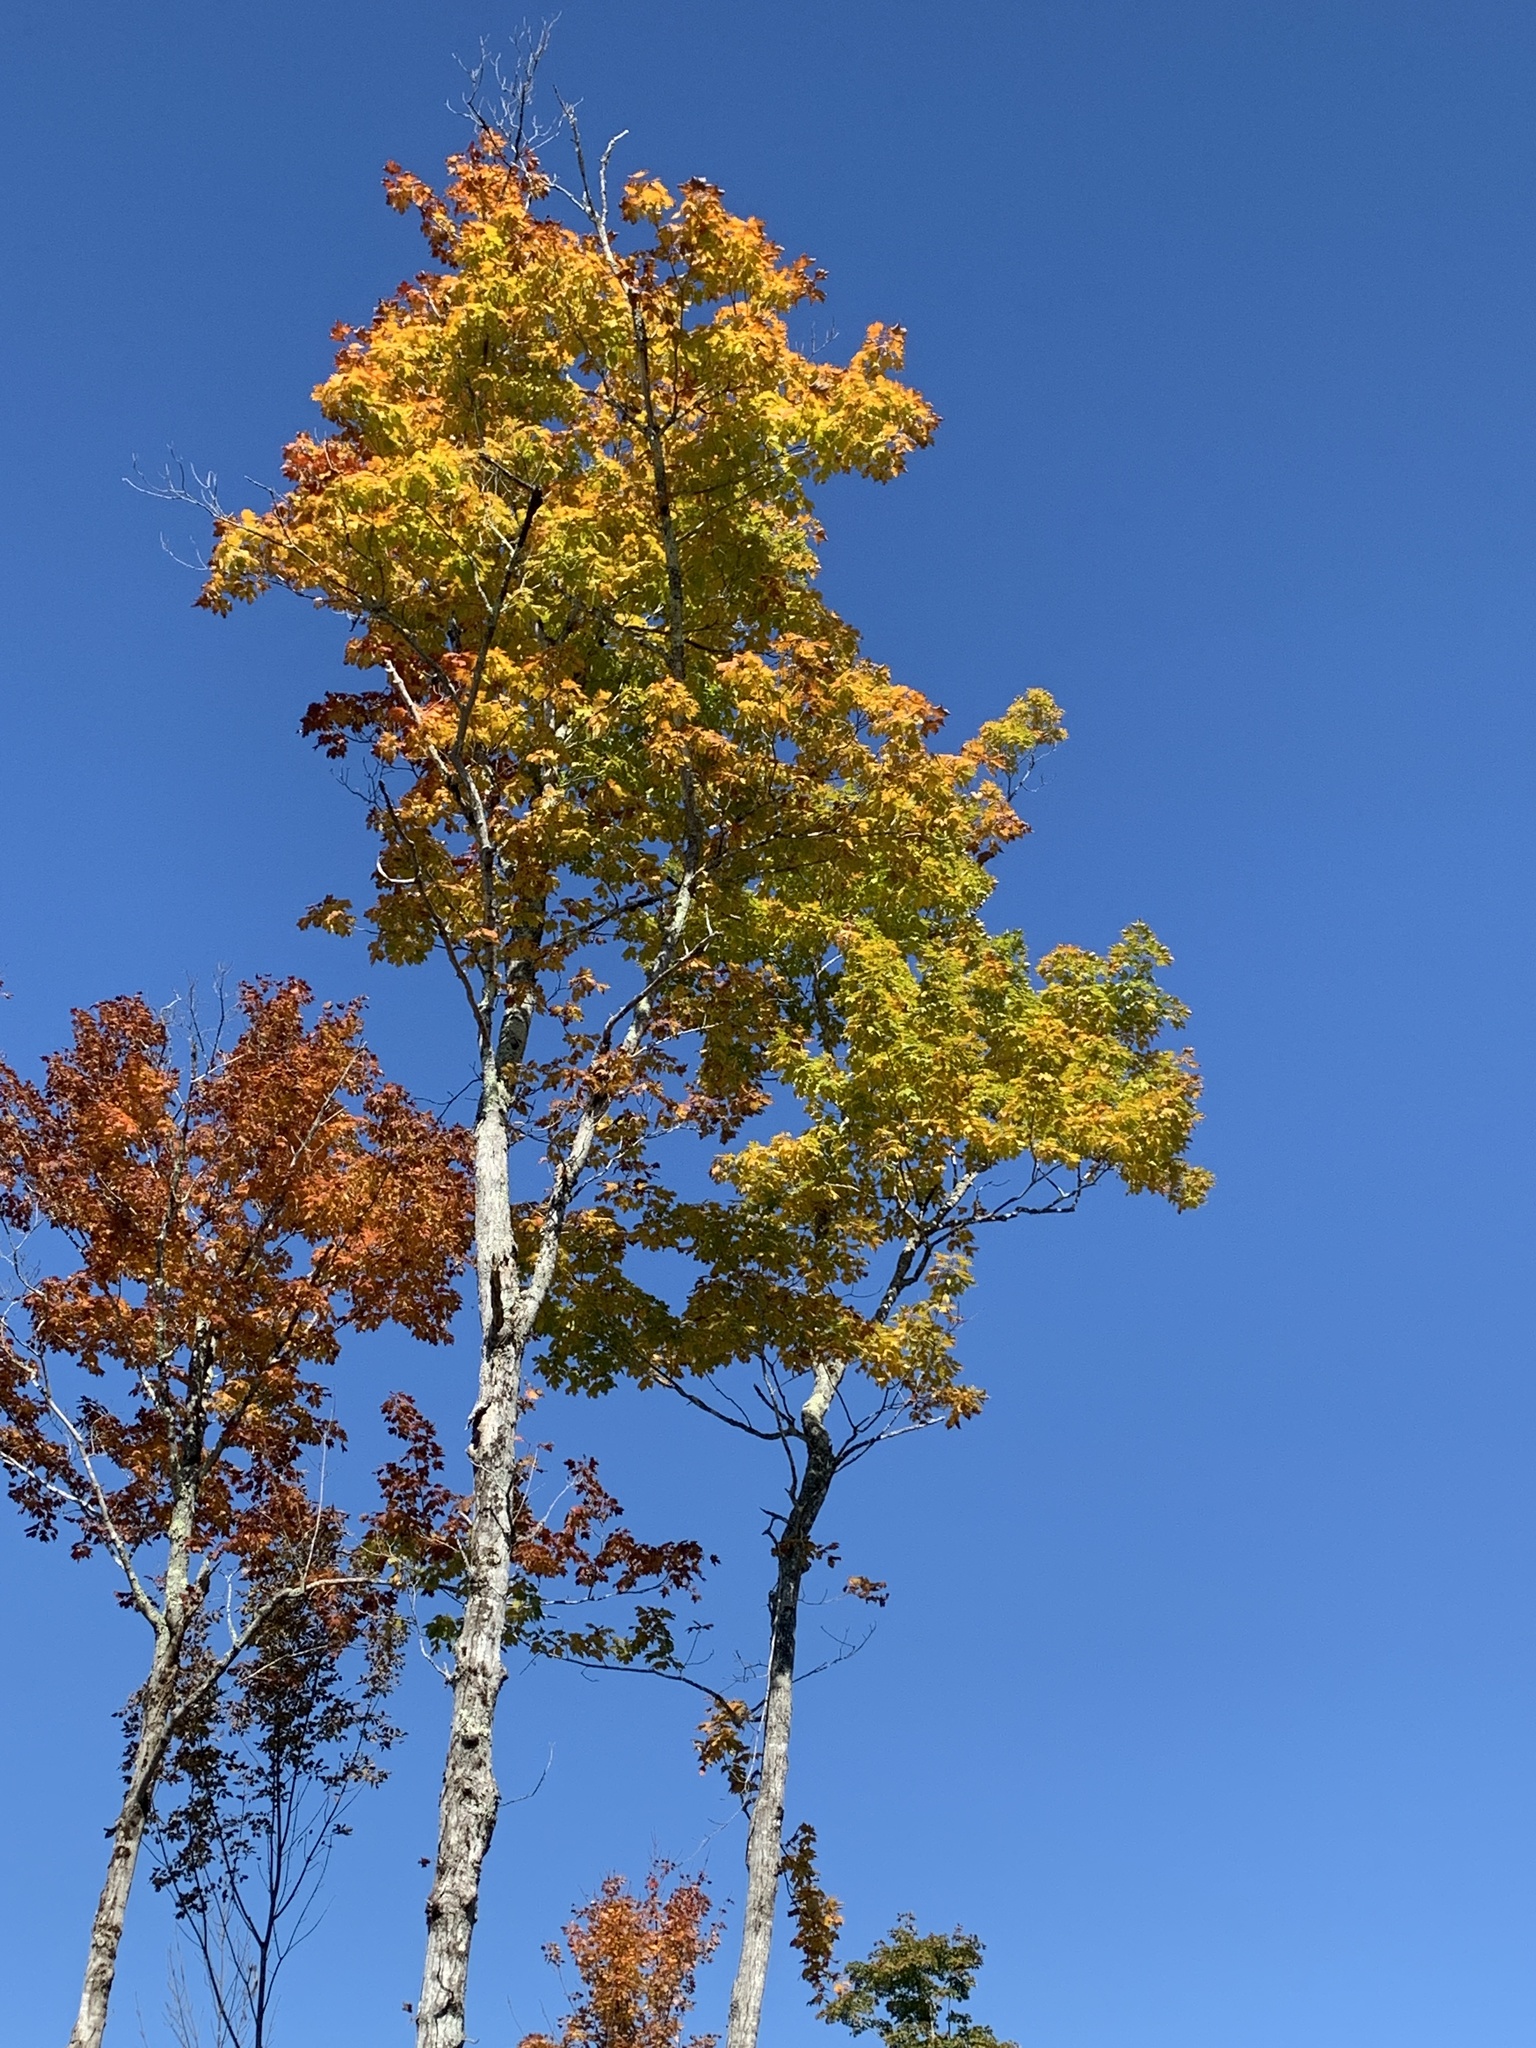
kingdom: Plantae
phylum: Tracheophyta
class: Magnoliopsida
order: Sapindales
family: Sapindaceae
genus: Acer
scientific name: Acer saccharum
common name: Sugar maple
